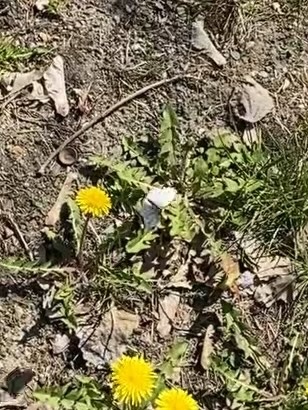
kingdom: Animalia
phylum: Arthropoda
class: Insecta
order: Lepidoptera
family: Pieridae
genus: Pieris
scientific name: Pieris napi
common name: Green-veined white
